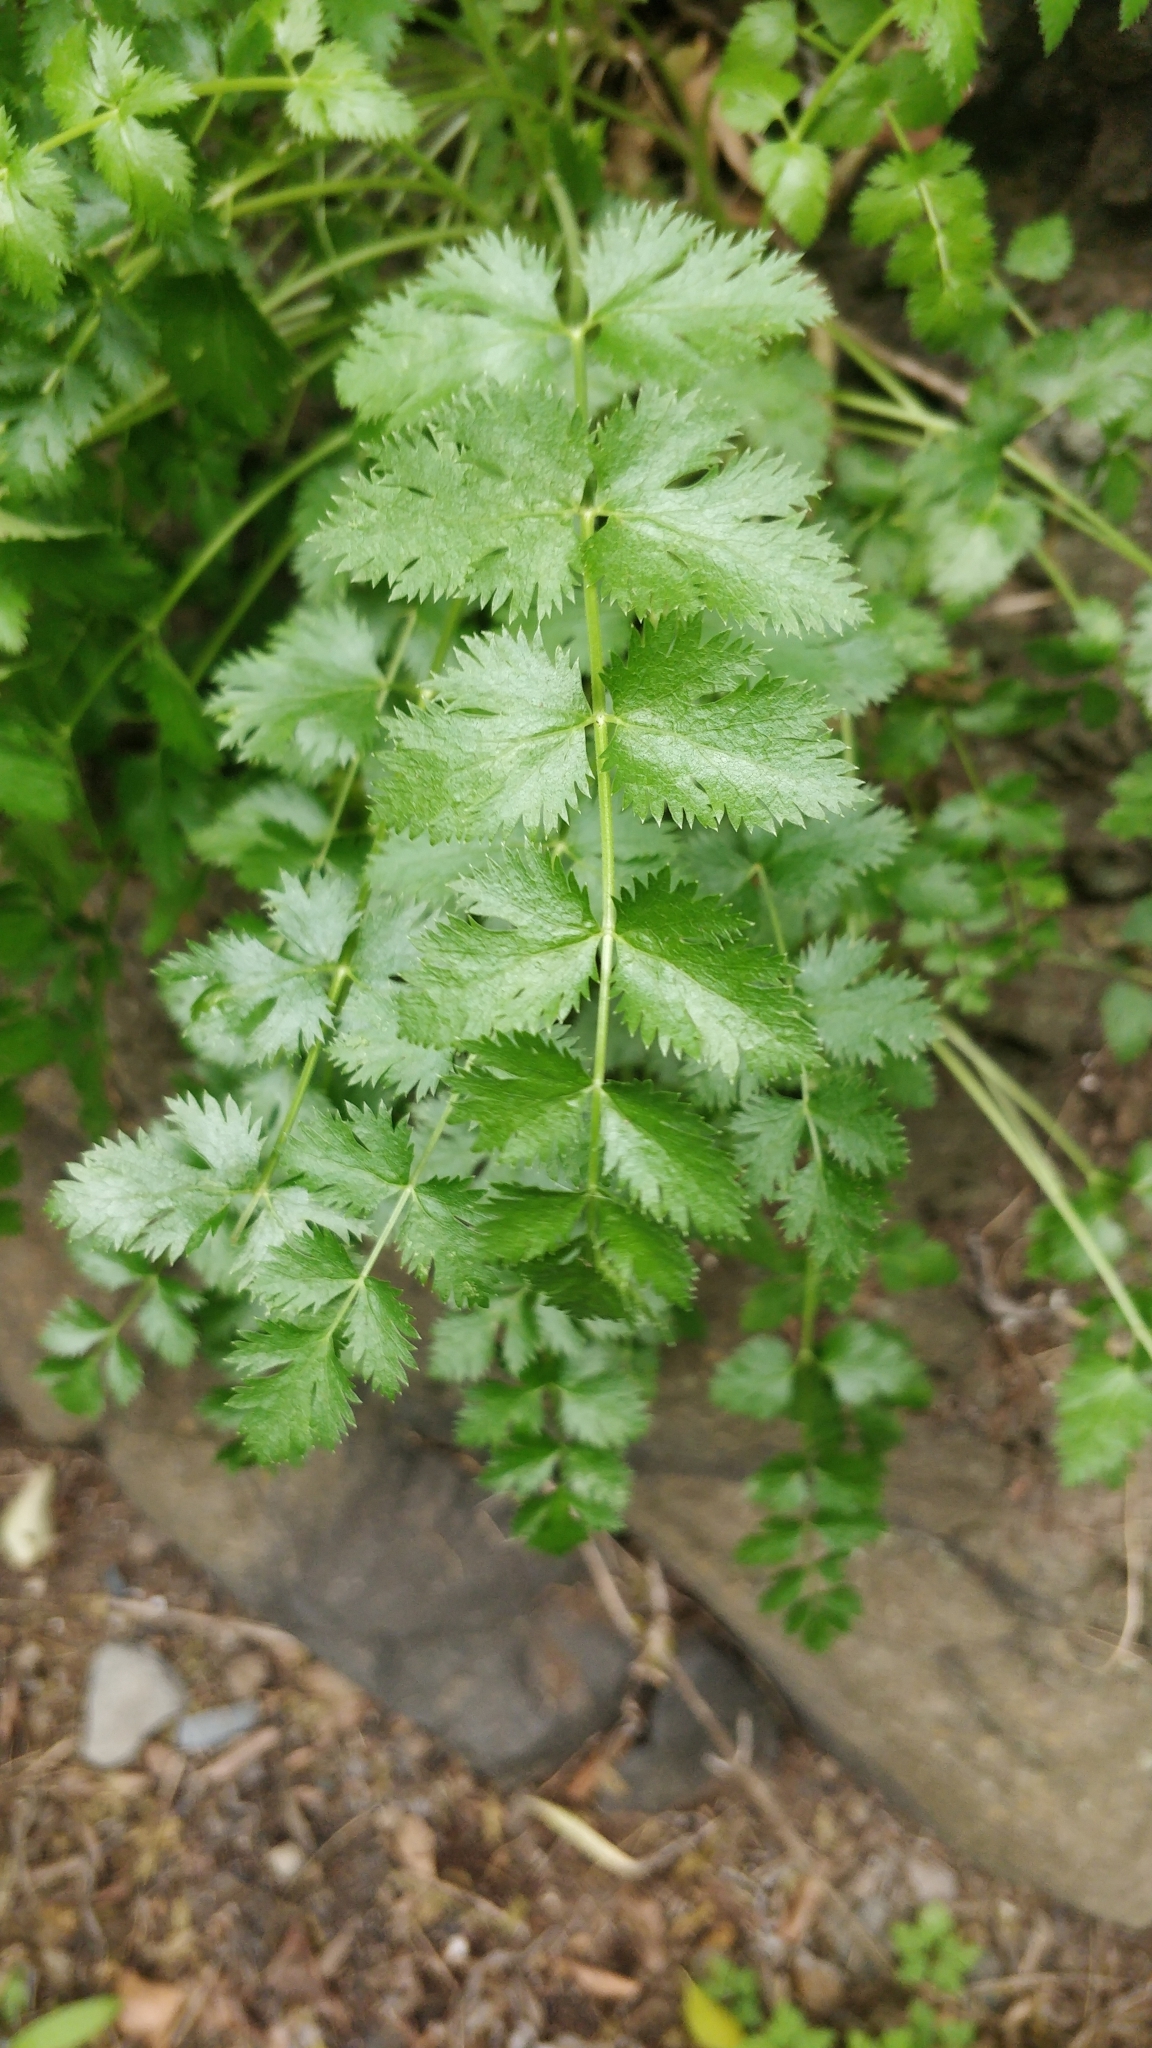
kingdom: Plantae
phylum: Tracheophyta
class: Magnoliopsida
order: Apiales
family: Apiaceae
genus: Pimpinella
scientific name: Pimpinella dendroselinum
